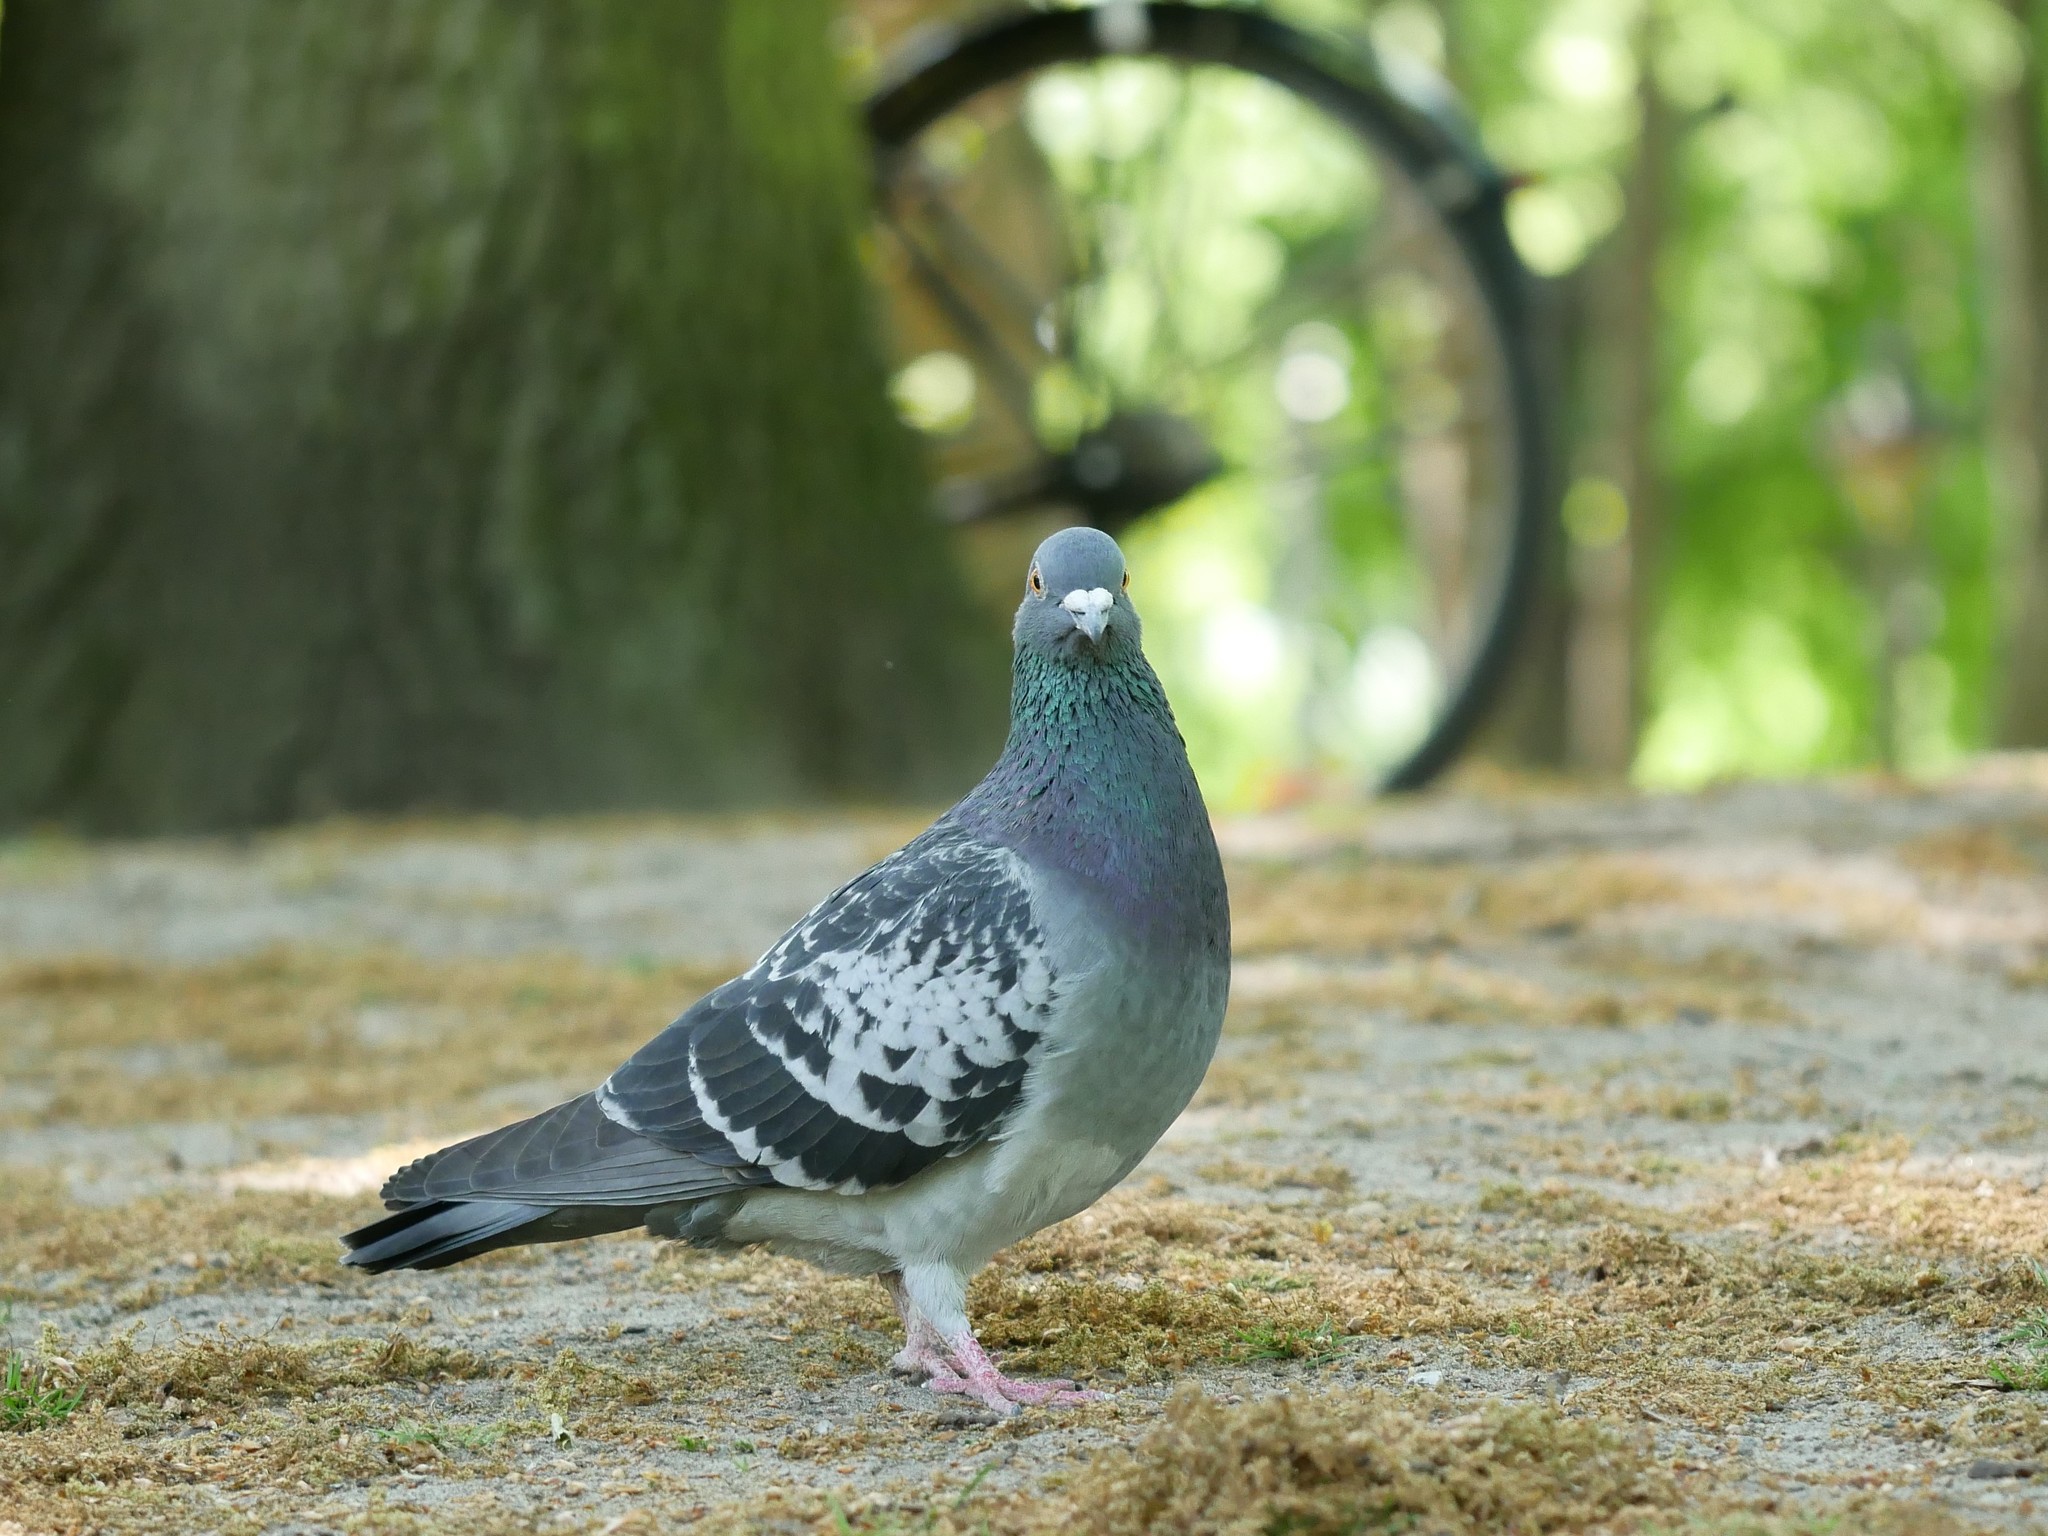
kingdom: Animalia
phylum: Chordata
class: Aves
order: Columbiformes
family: Columbidae
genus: Columba
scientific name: Columba livia
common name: Rock pigeon
